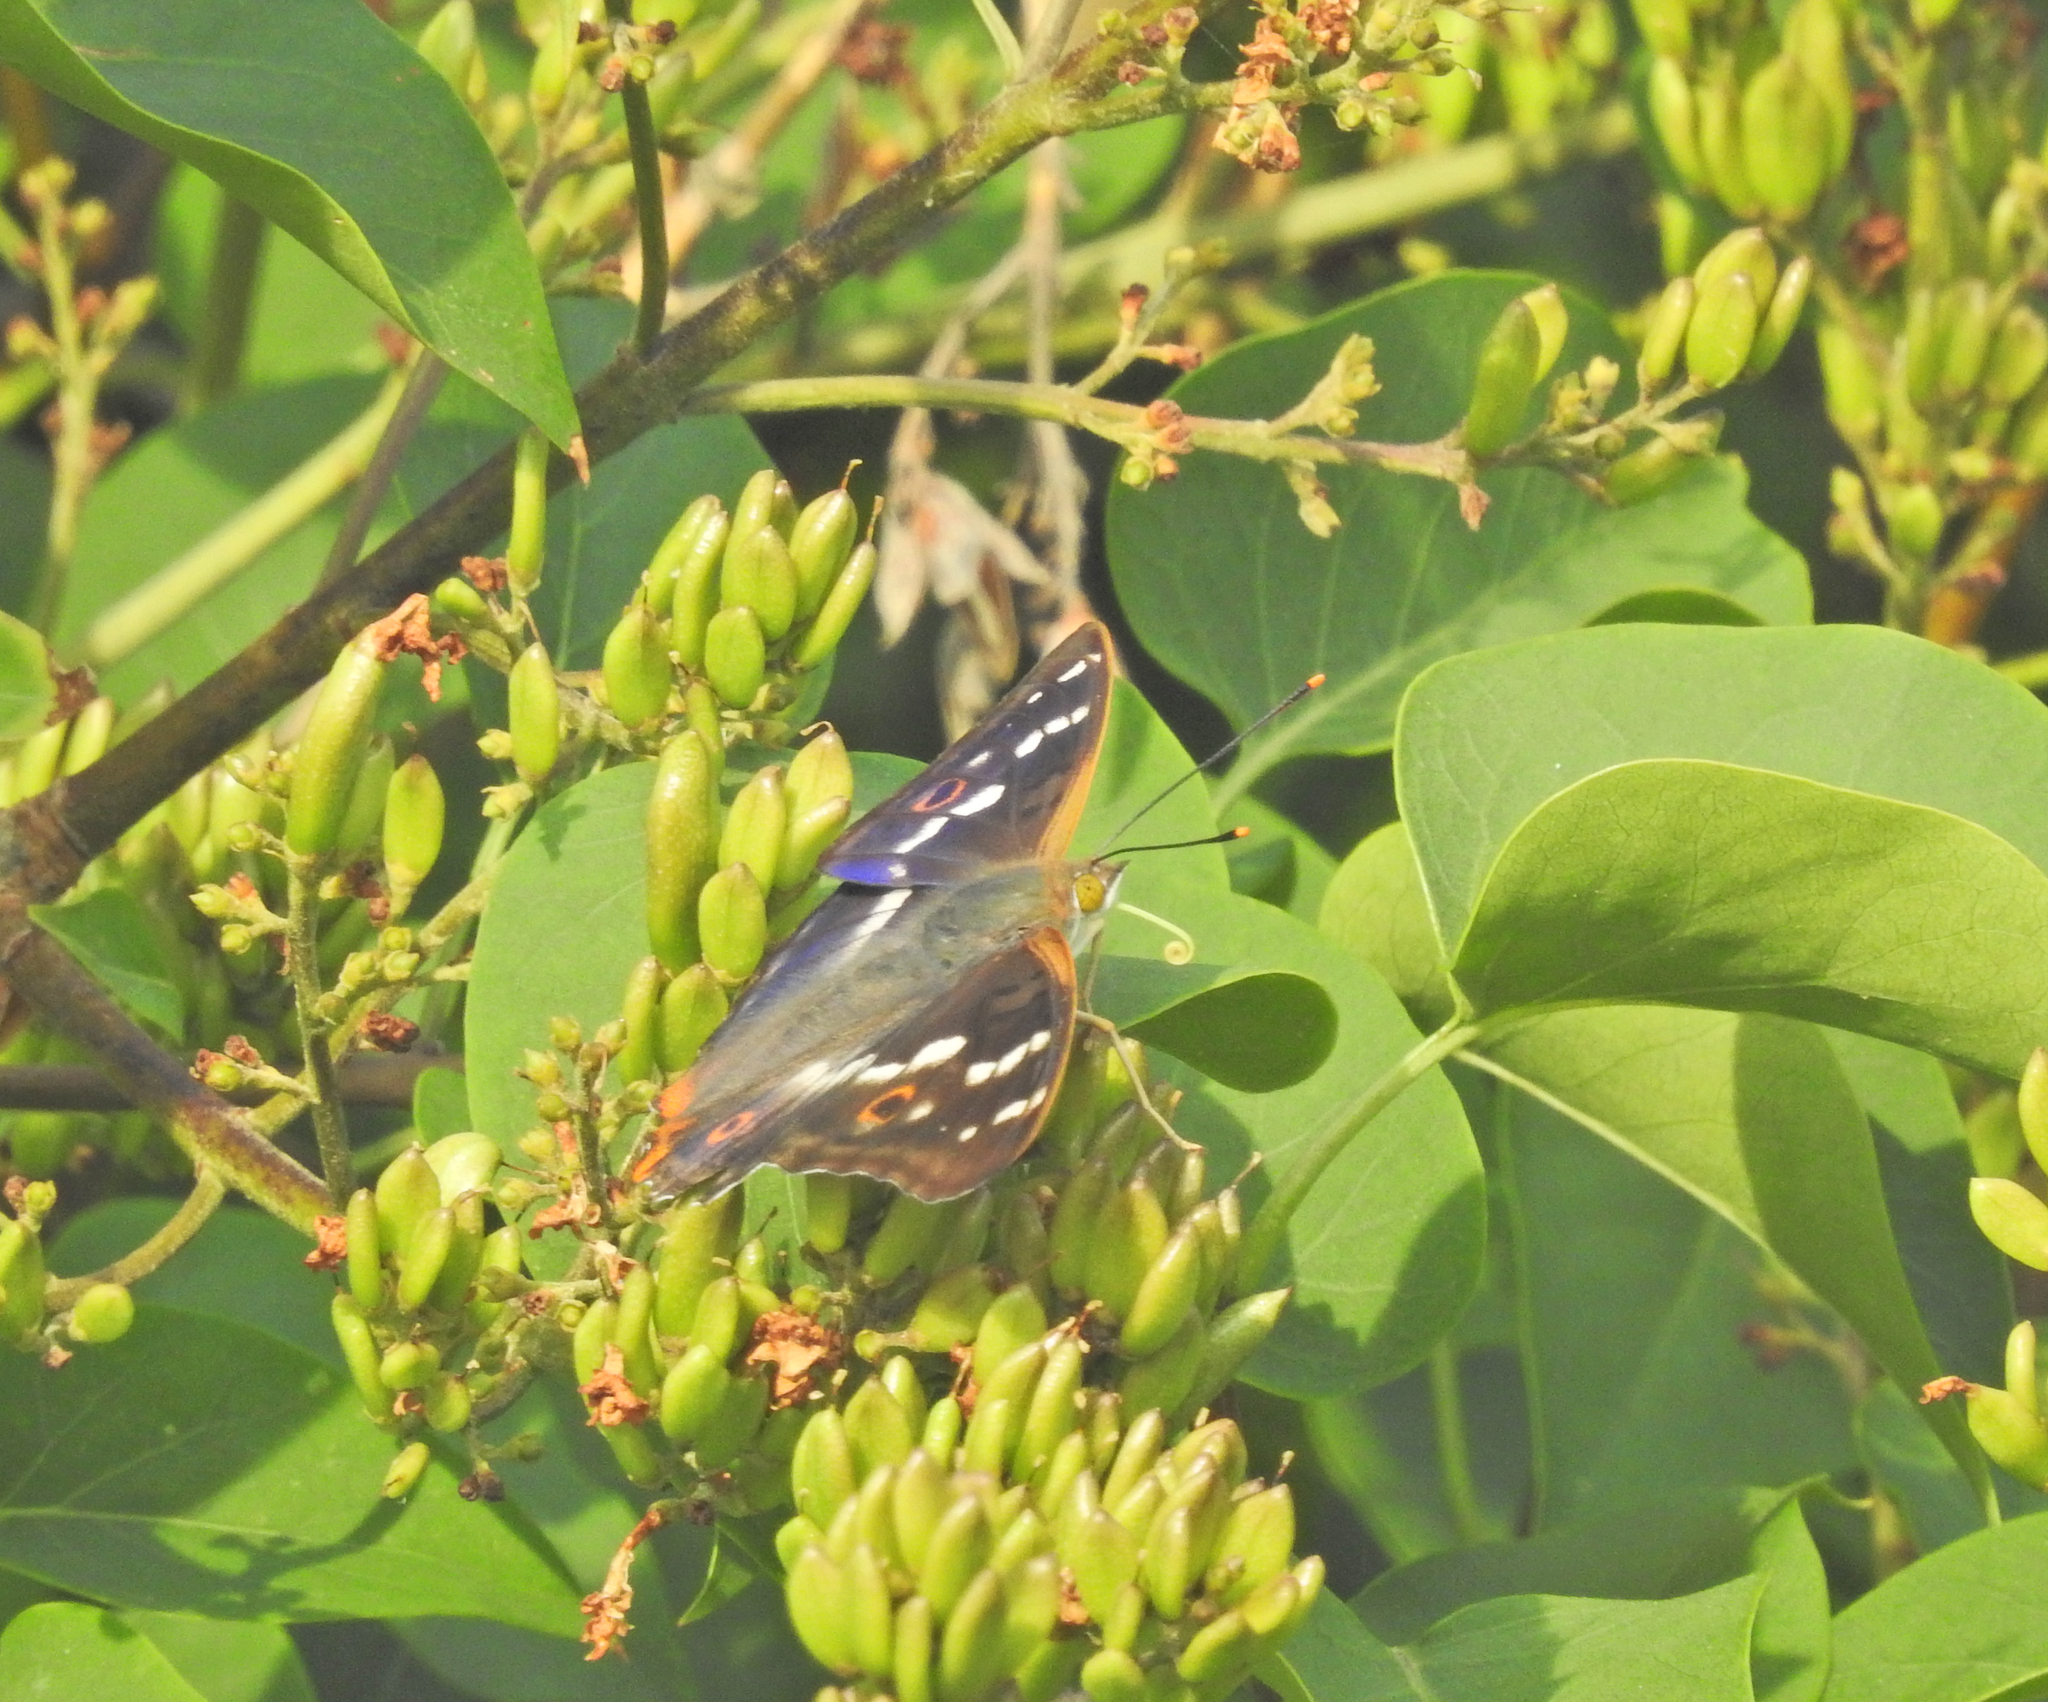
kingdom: Animalia
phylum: Arthropoda
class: Insecta
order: Lepidoptera
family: Nymphalidae
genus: Apatura
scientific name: Apatura ilia
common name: Lesser purple emperor
